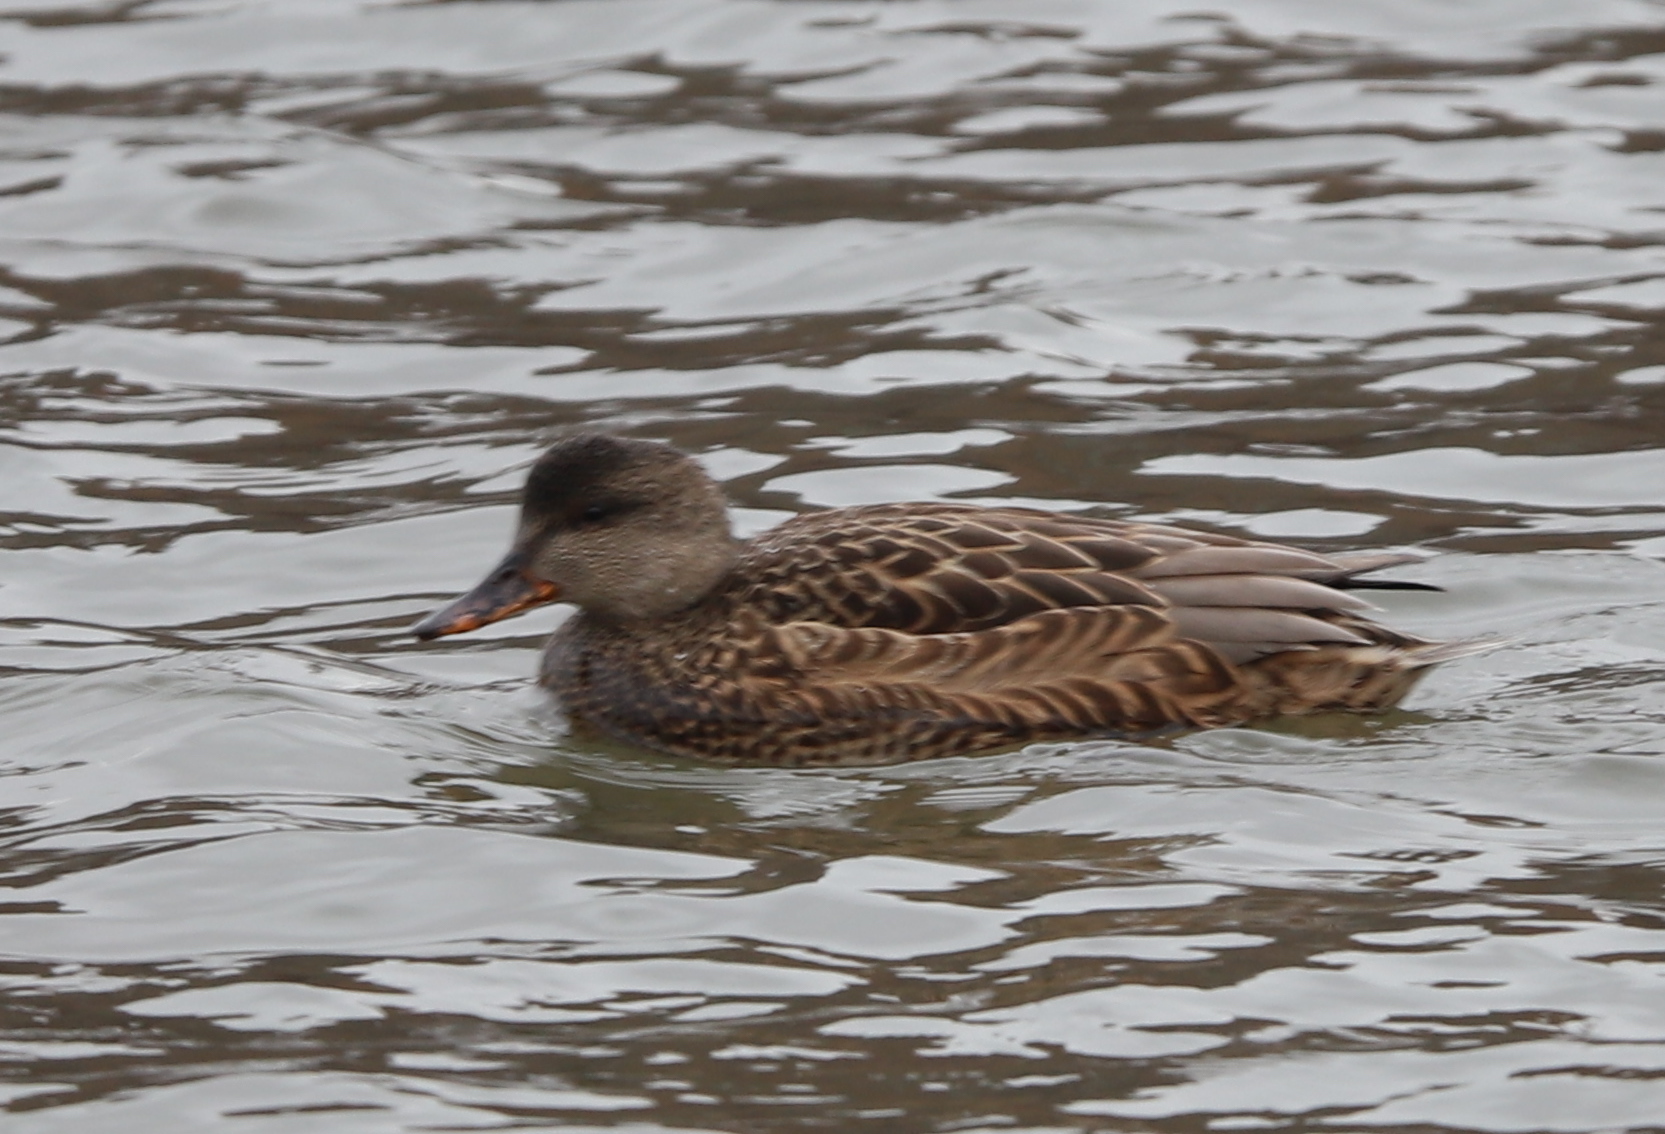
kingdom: Animalia
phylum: Chordata
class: Aves
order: Anseriformes
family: Anatidae
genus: Mareca
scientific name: Mareca strepera
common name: Gadwall
